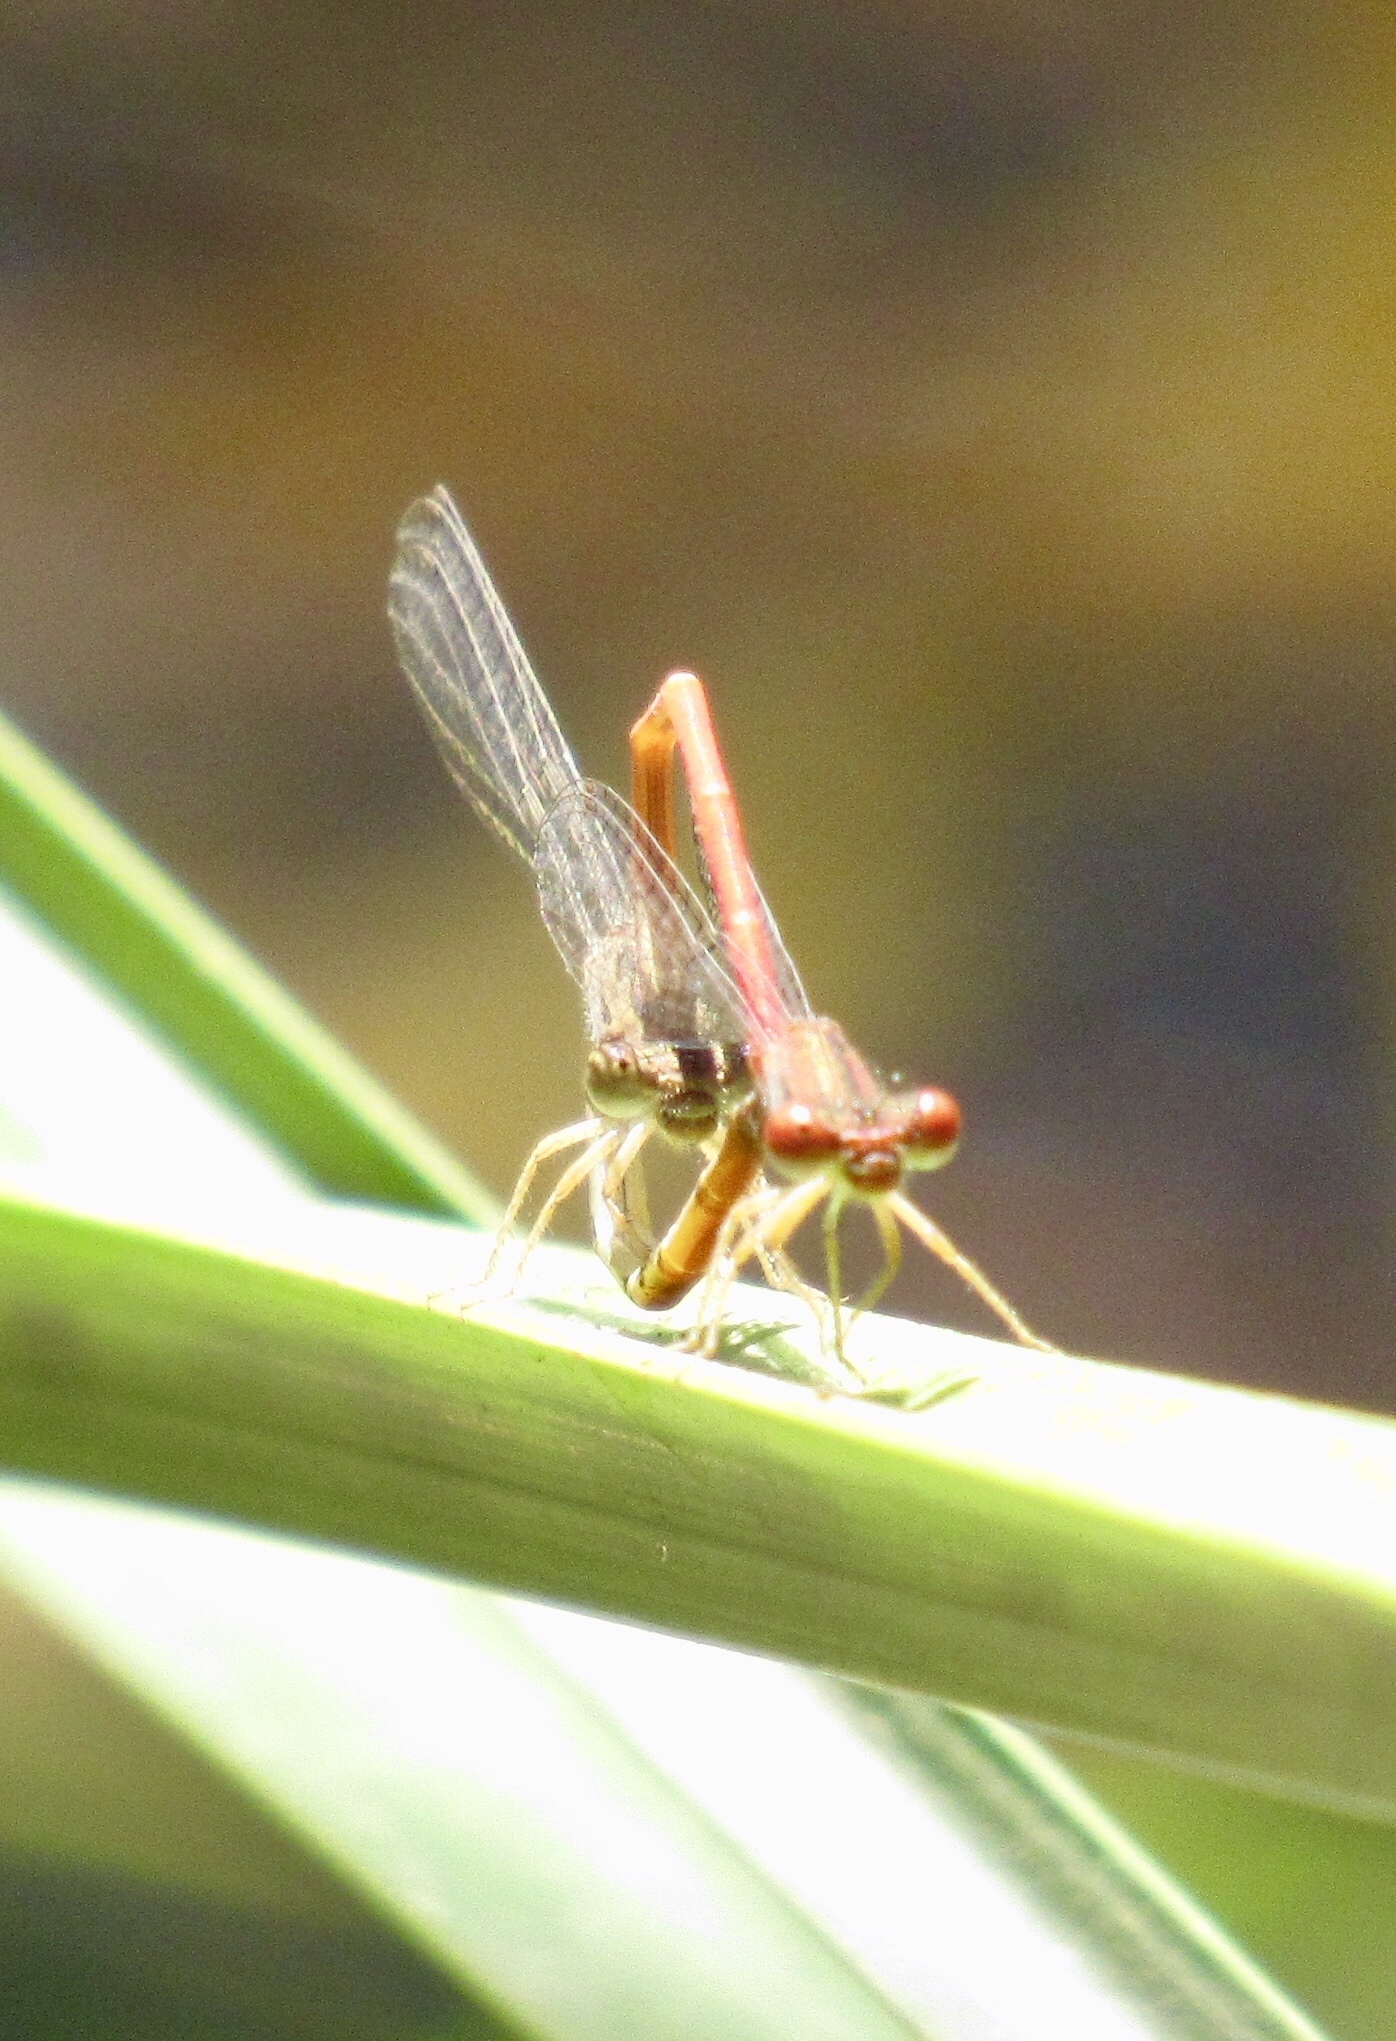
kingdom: Animalia
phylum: Arthropoda
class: Insecta
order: Odonata
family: Coenagrionidae
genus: Telebasis
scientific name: Telebasis salva
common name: Desert firetail
